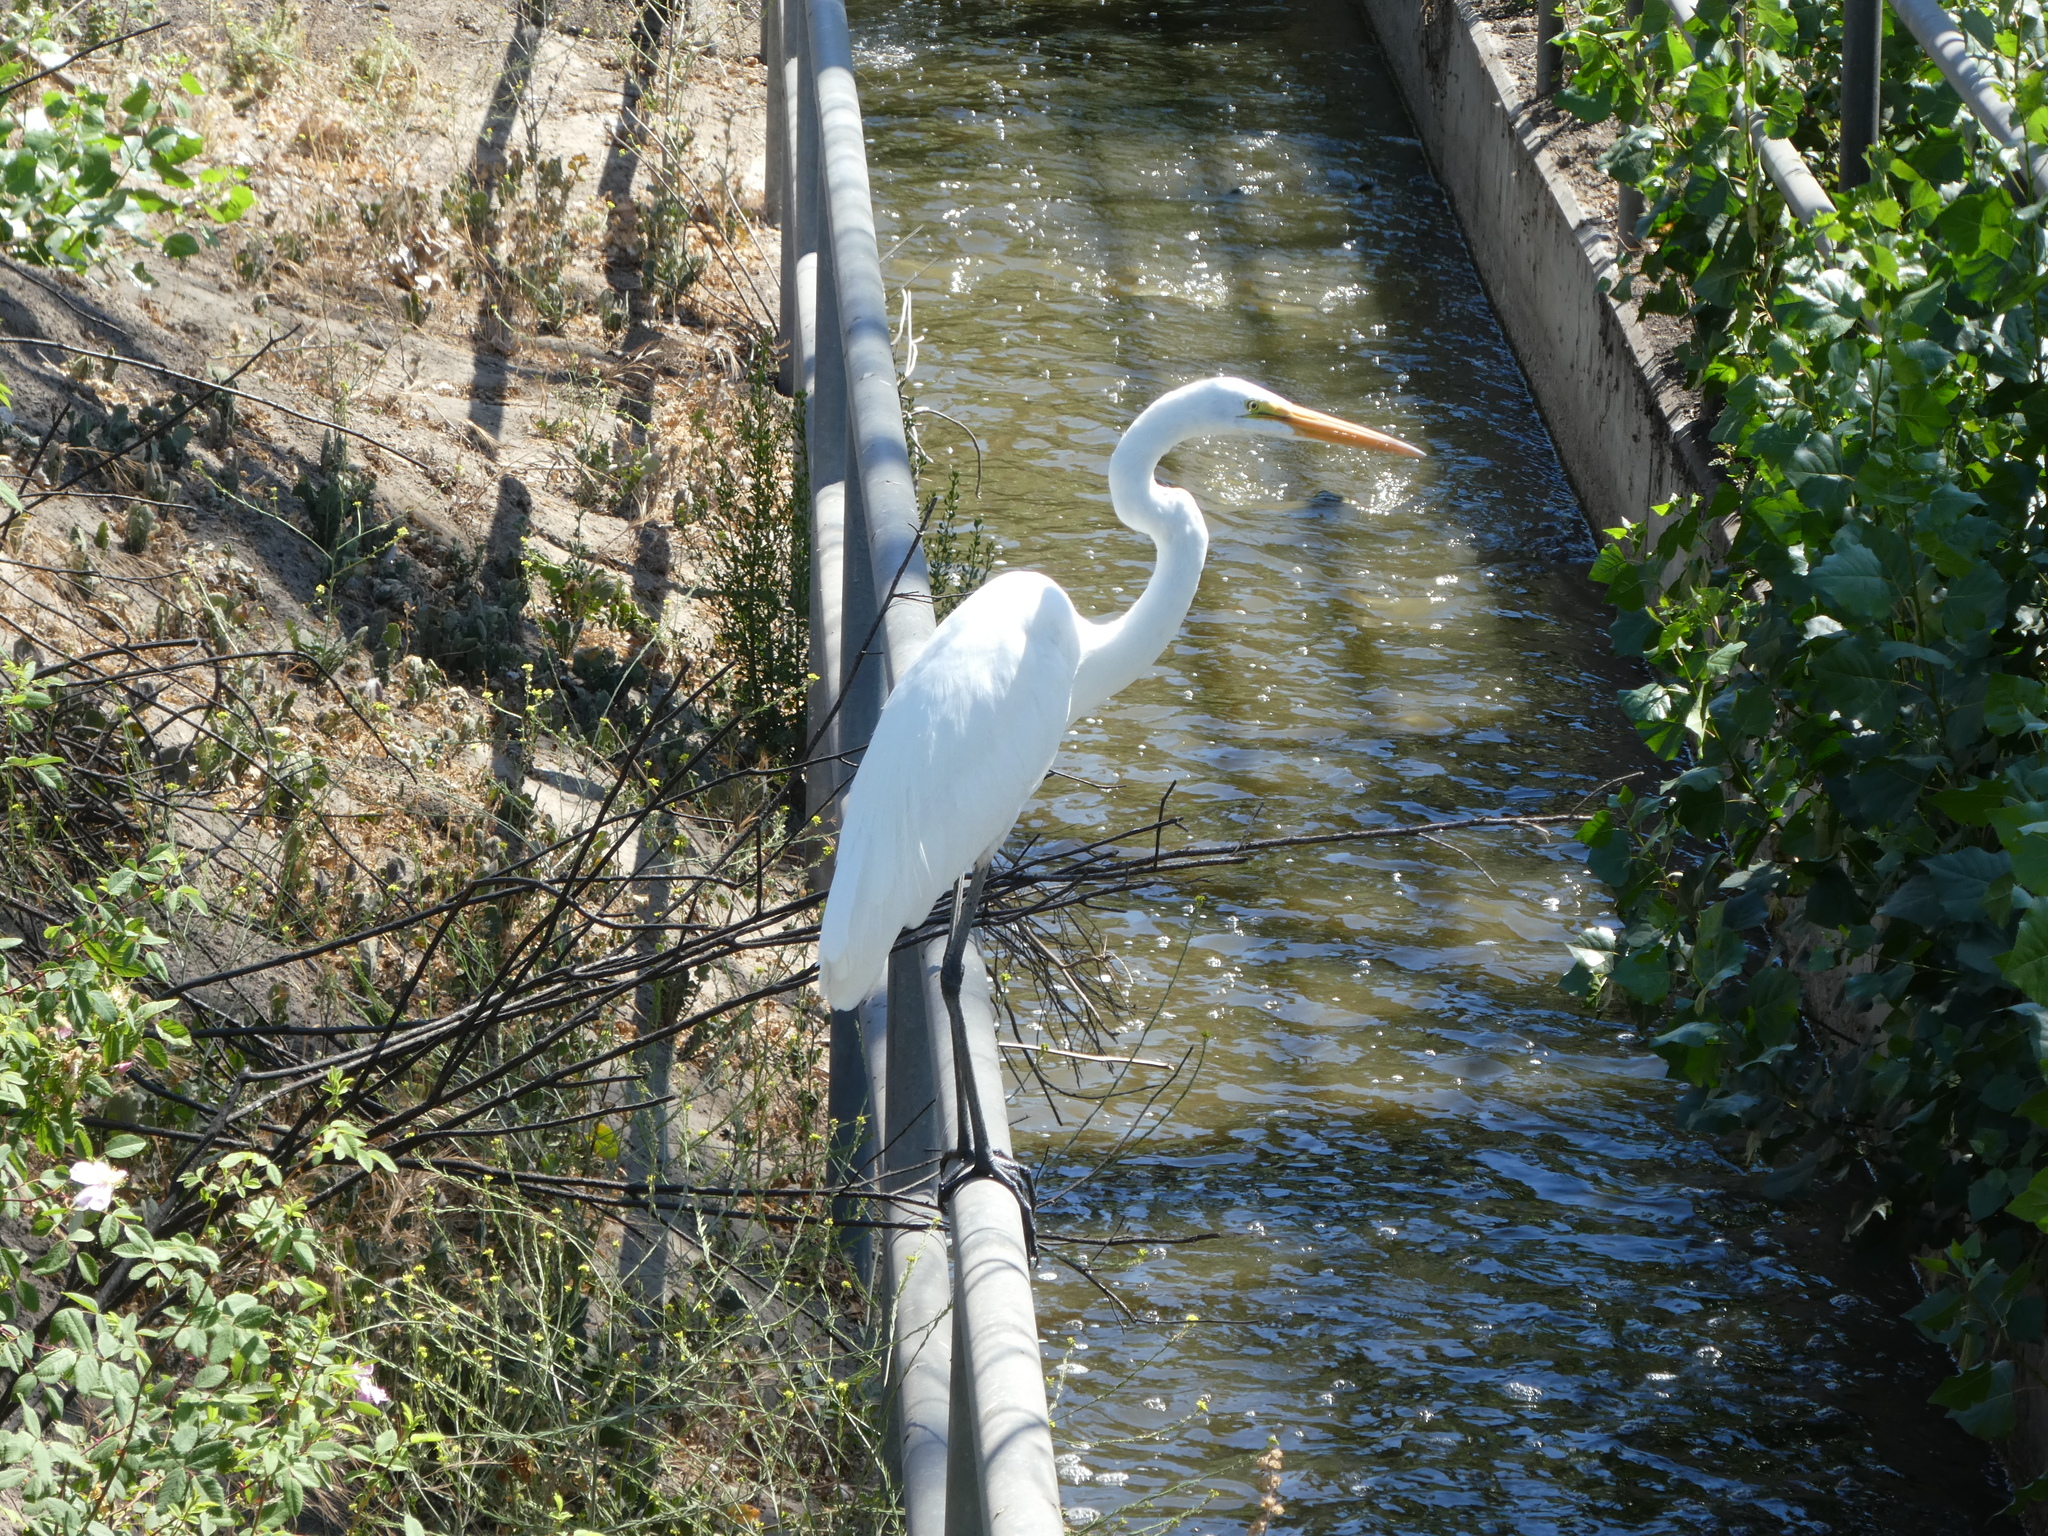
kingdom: Animalia
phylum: Chordata
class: Aves
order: Pelecaniformes
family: Ardeidae
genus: Ardea
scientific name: Ardea alba
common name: Great egret
